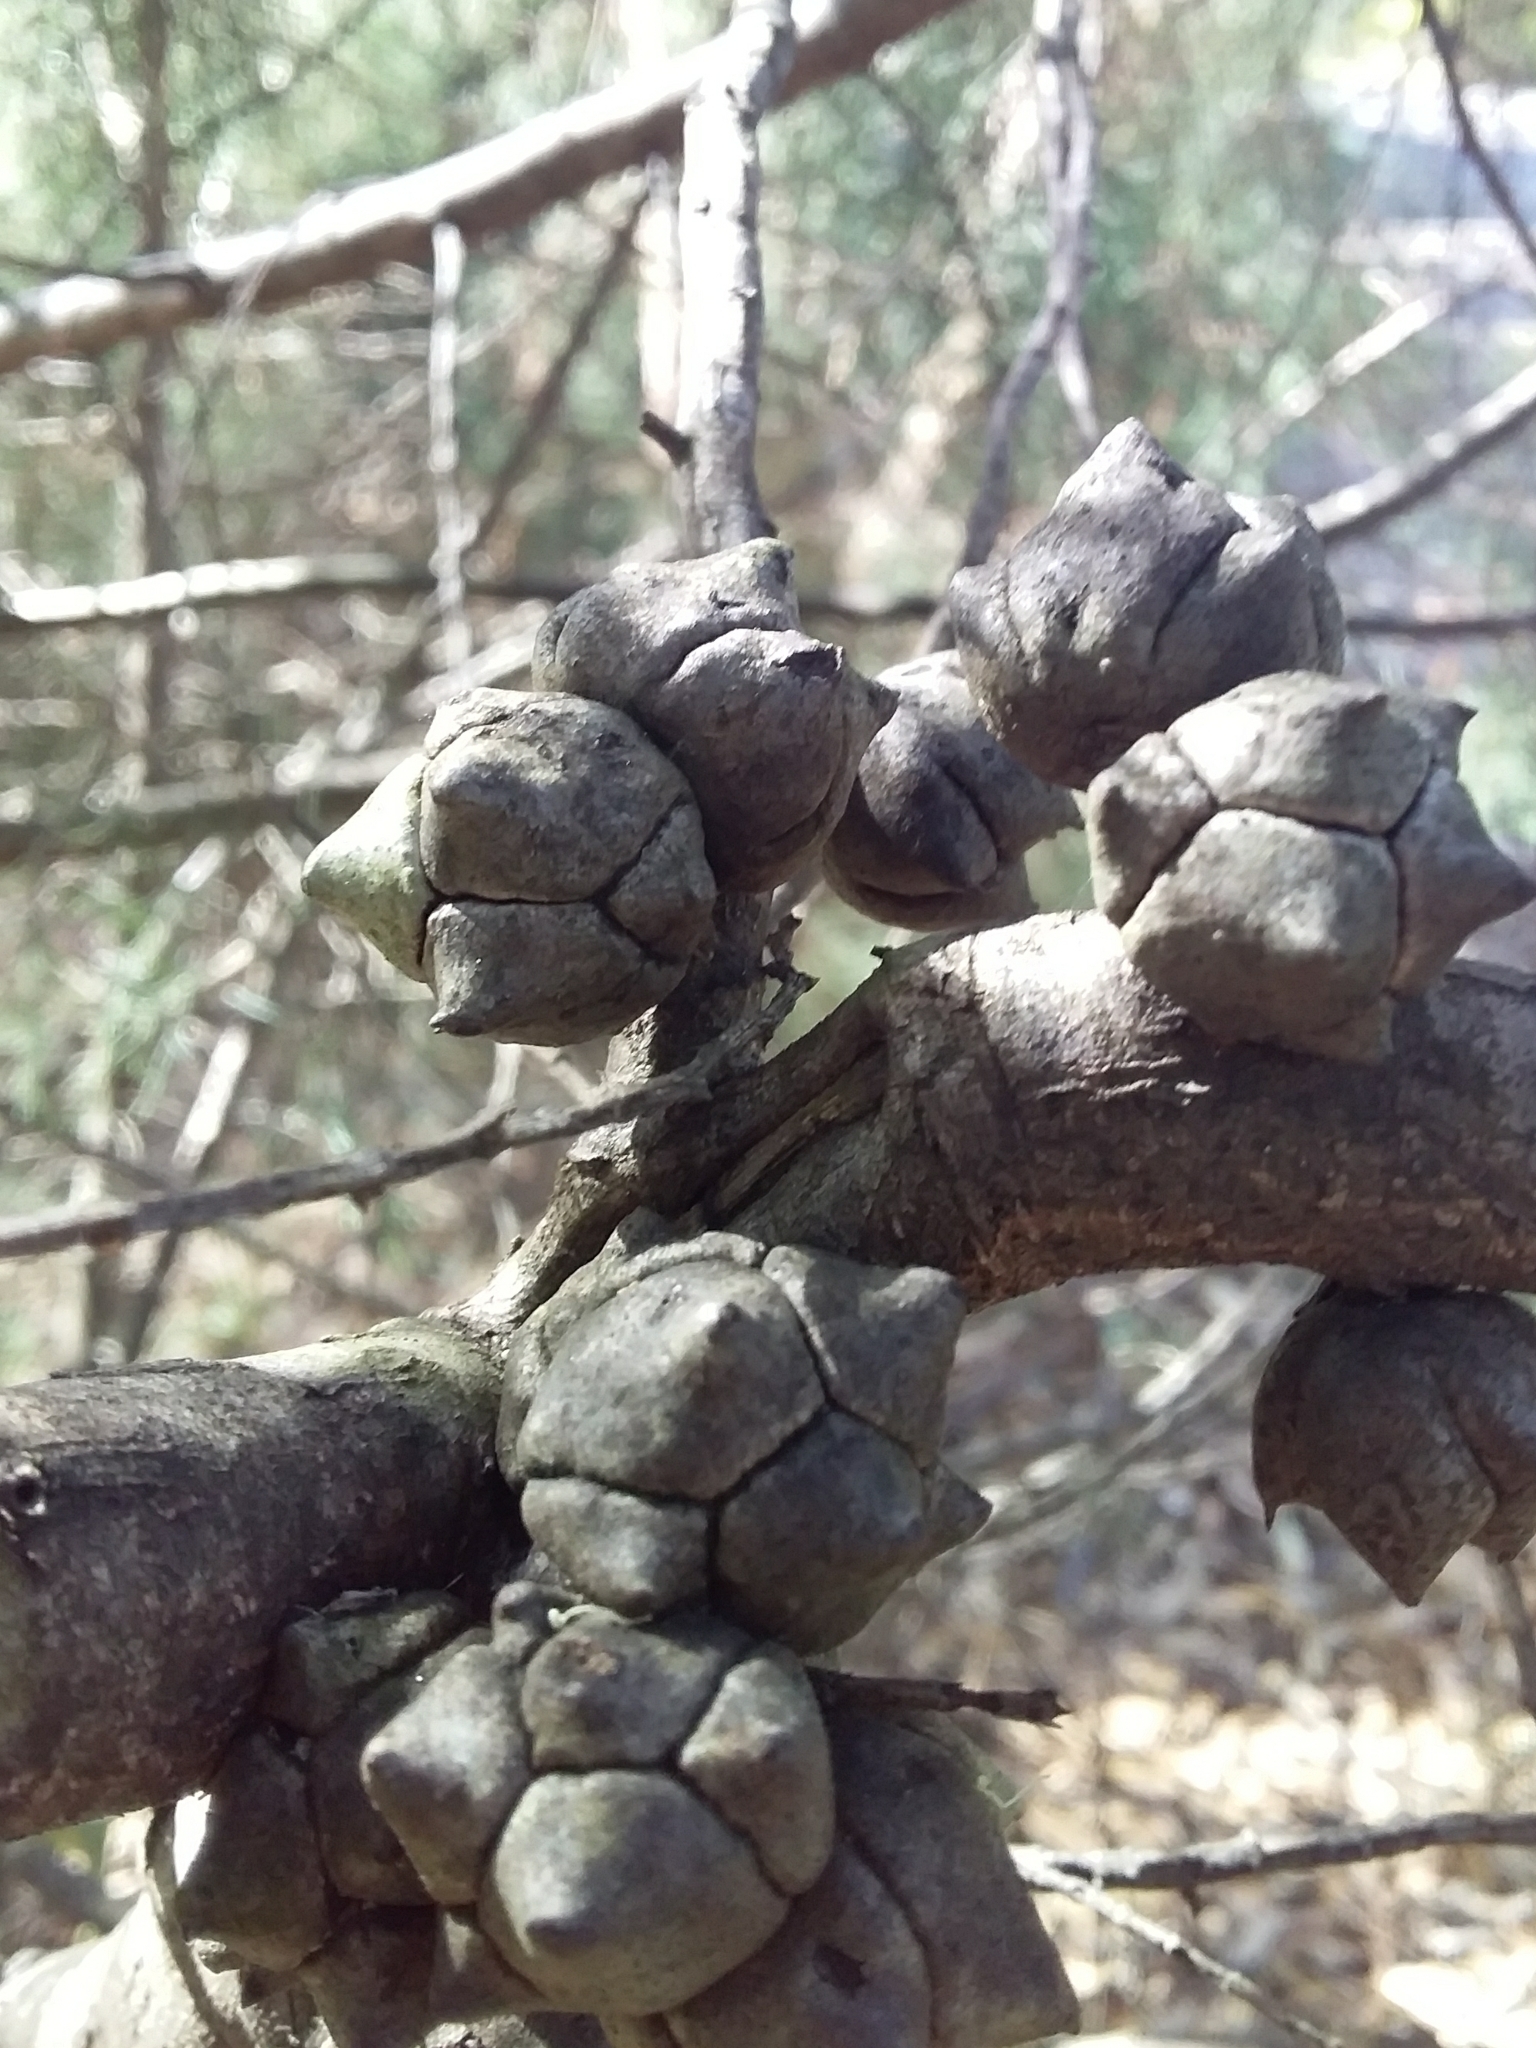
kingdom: Plantae
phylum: Tracheophyta
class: Pinopsida
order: Pinales
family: Cupressaceae
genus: Callitris
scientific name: Callitris rhomboidea
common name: Illawara mountain pine
